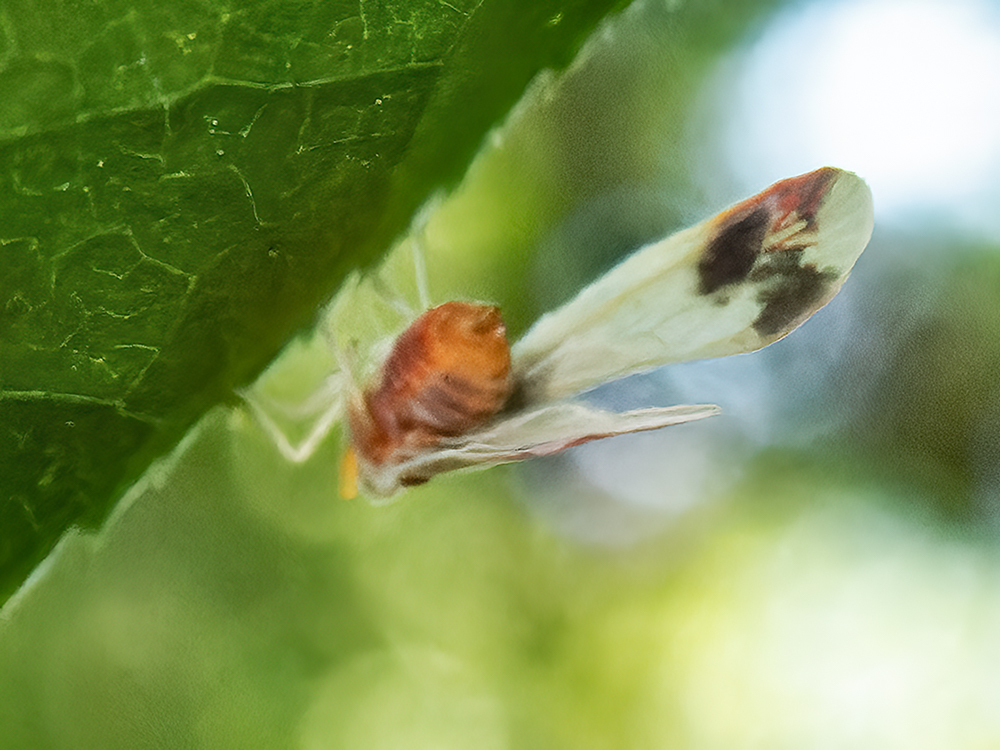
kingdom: Animalia
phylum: Arthropoda
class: Insecta
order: Hemiptera
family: Derbidae
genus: Anotia
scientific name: Anotia uhleri
